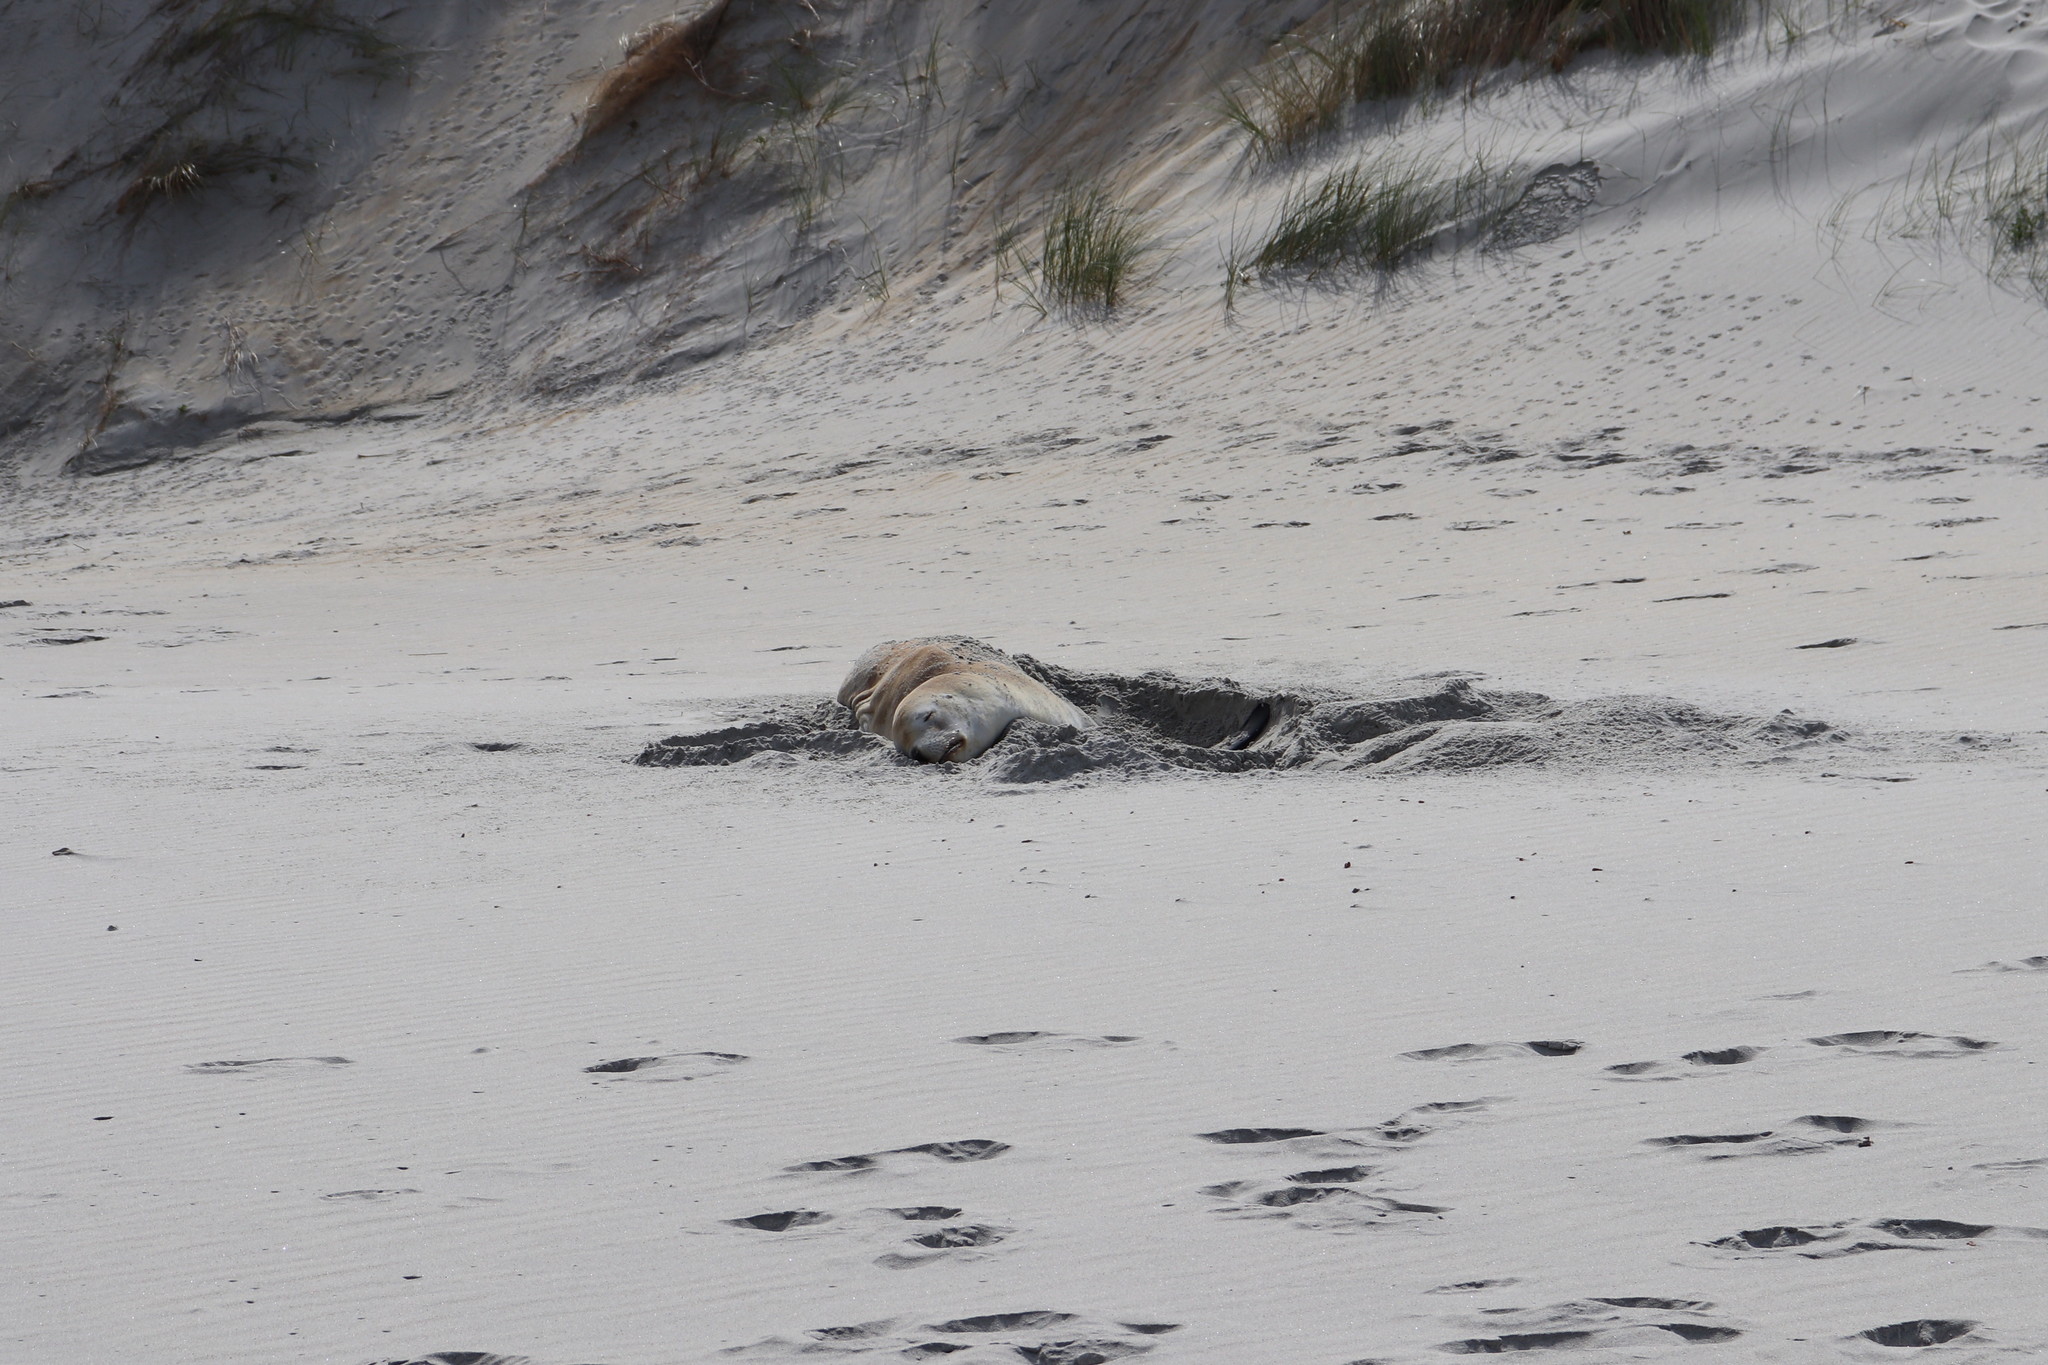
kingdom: Animalia
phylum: Chordata
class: Mammalia
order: Carnivora
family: Otariidae
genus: Phocarctos
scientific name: Phocarctos hookeri
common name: New zealand sea lion
